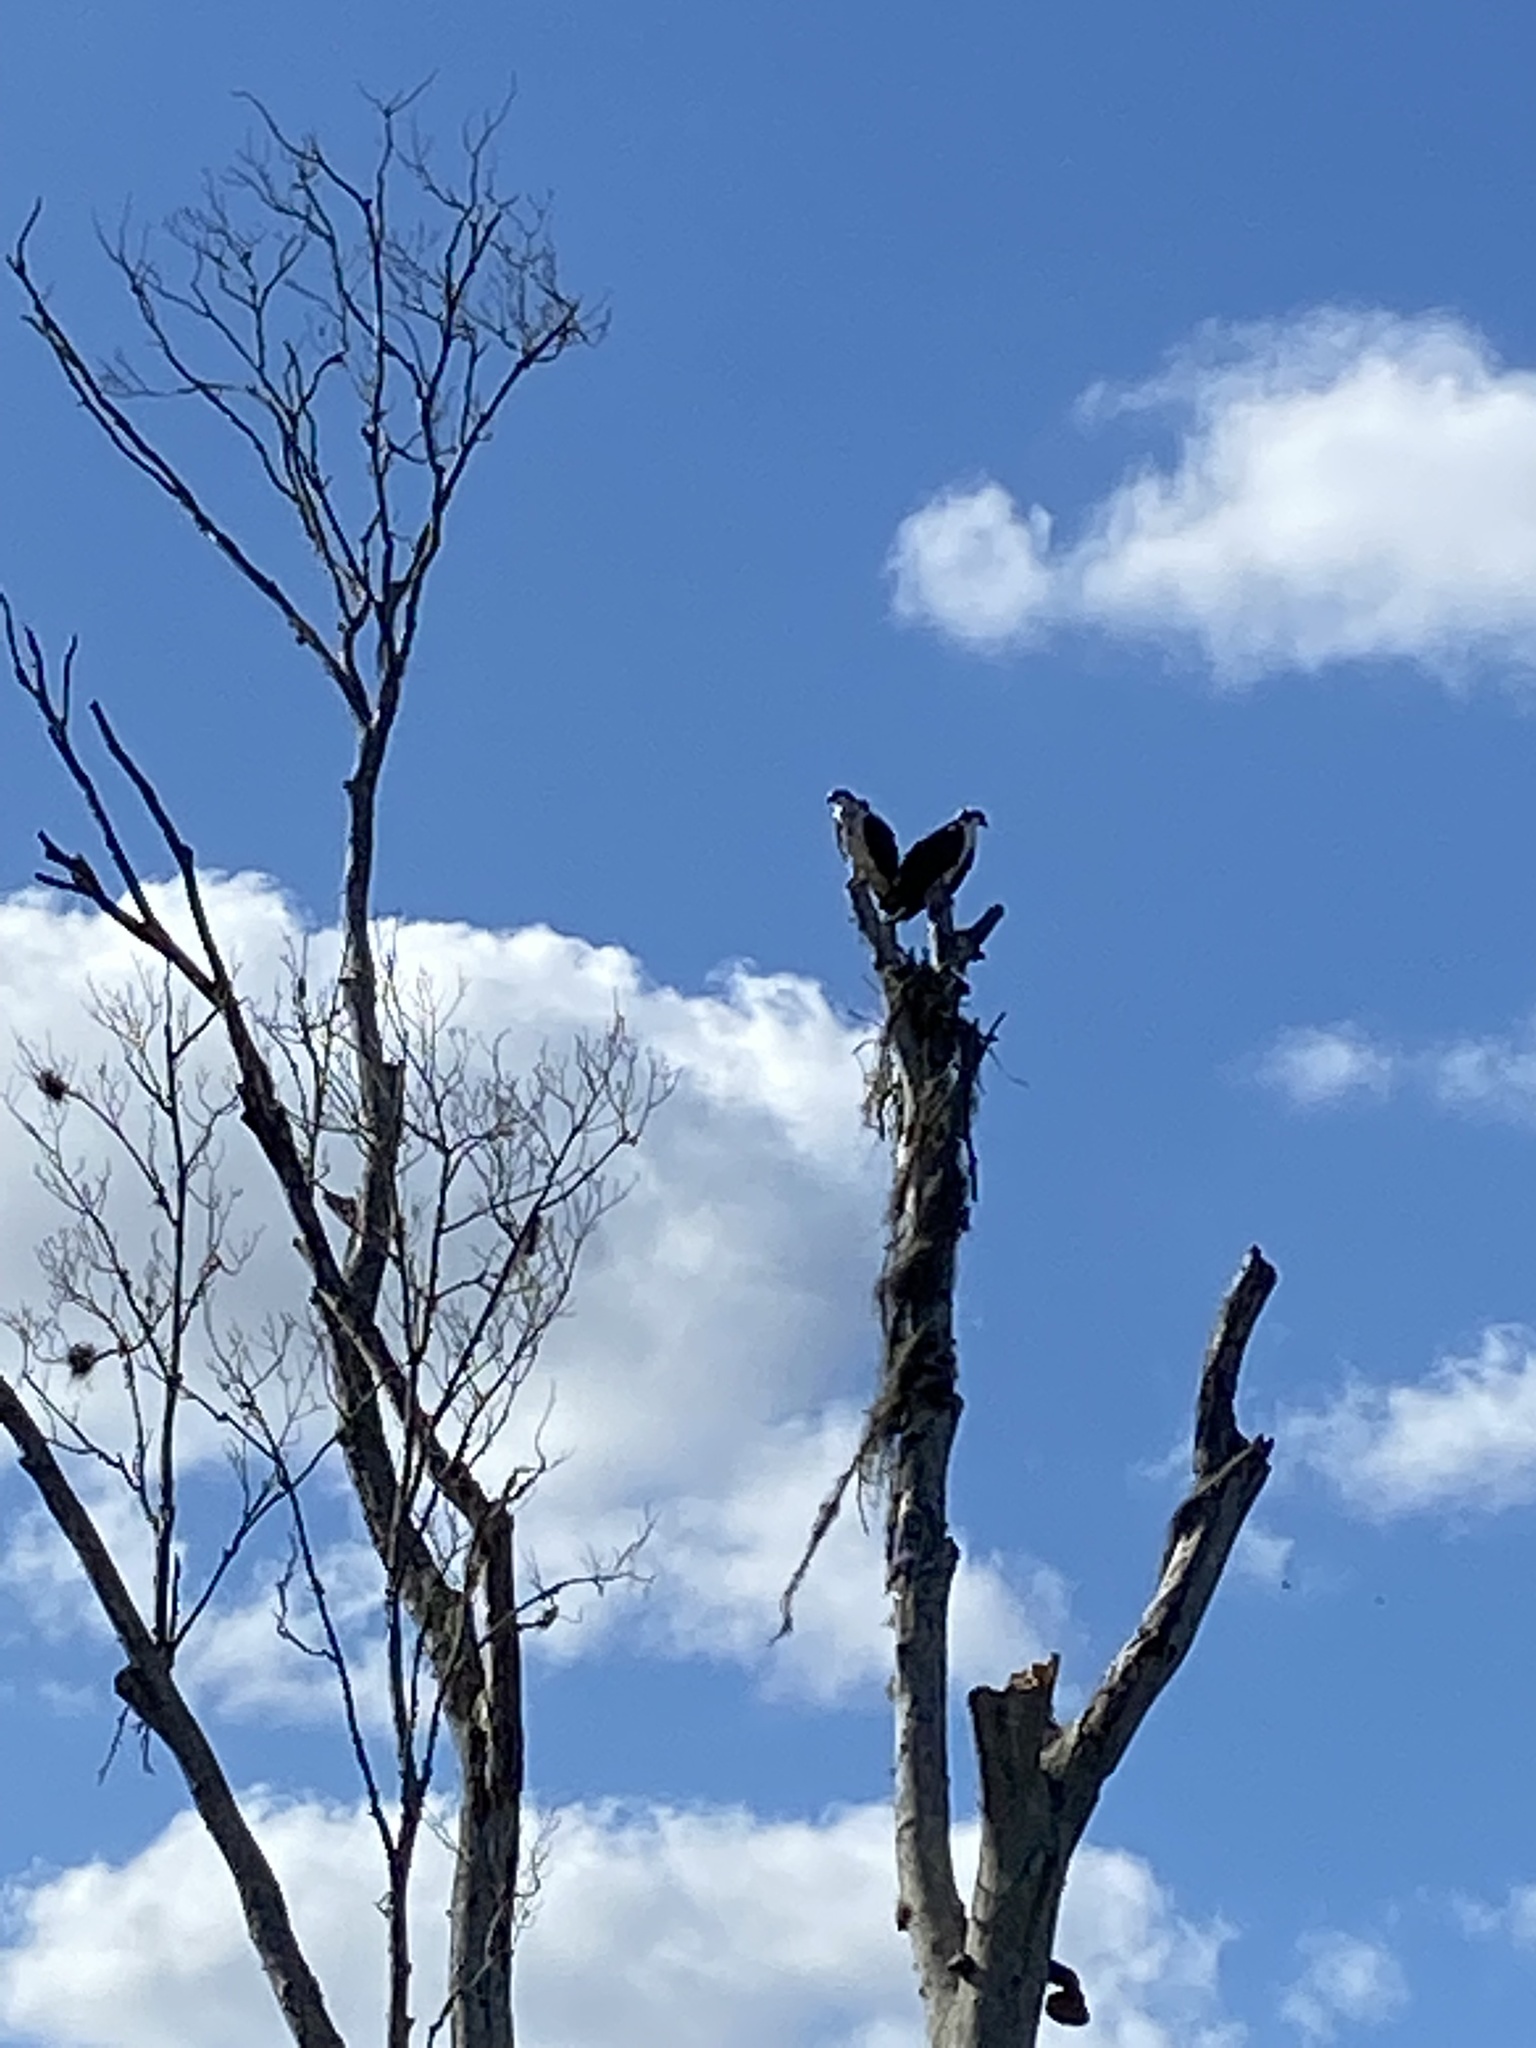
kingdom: Animalia
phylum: Chordata
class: Aves
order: Accipitriformes
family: Pandionidae
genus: Pandion
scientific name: Pandion haliaetus
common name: Osprey
